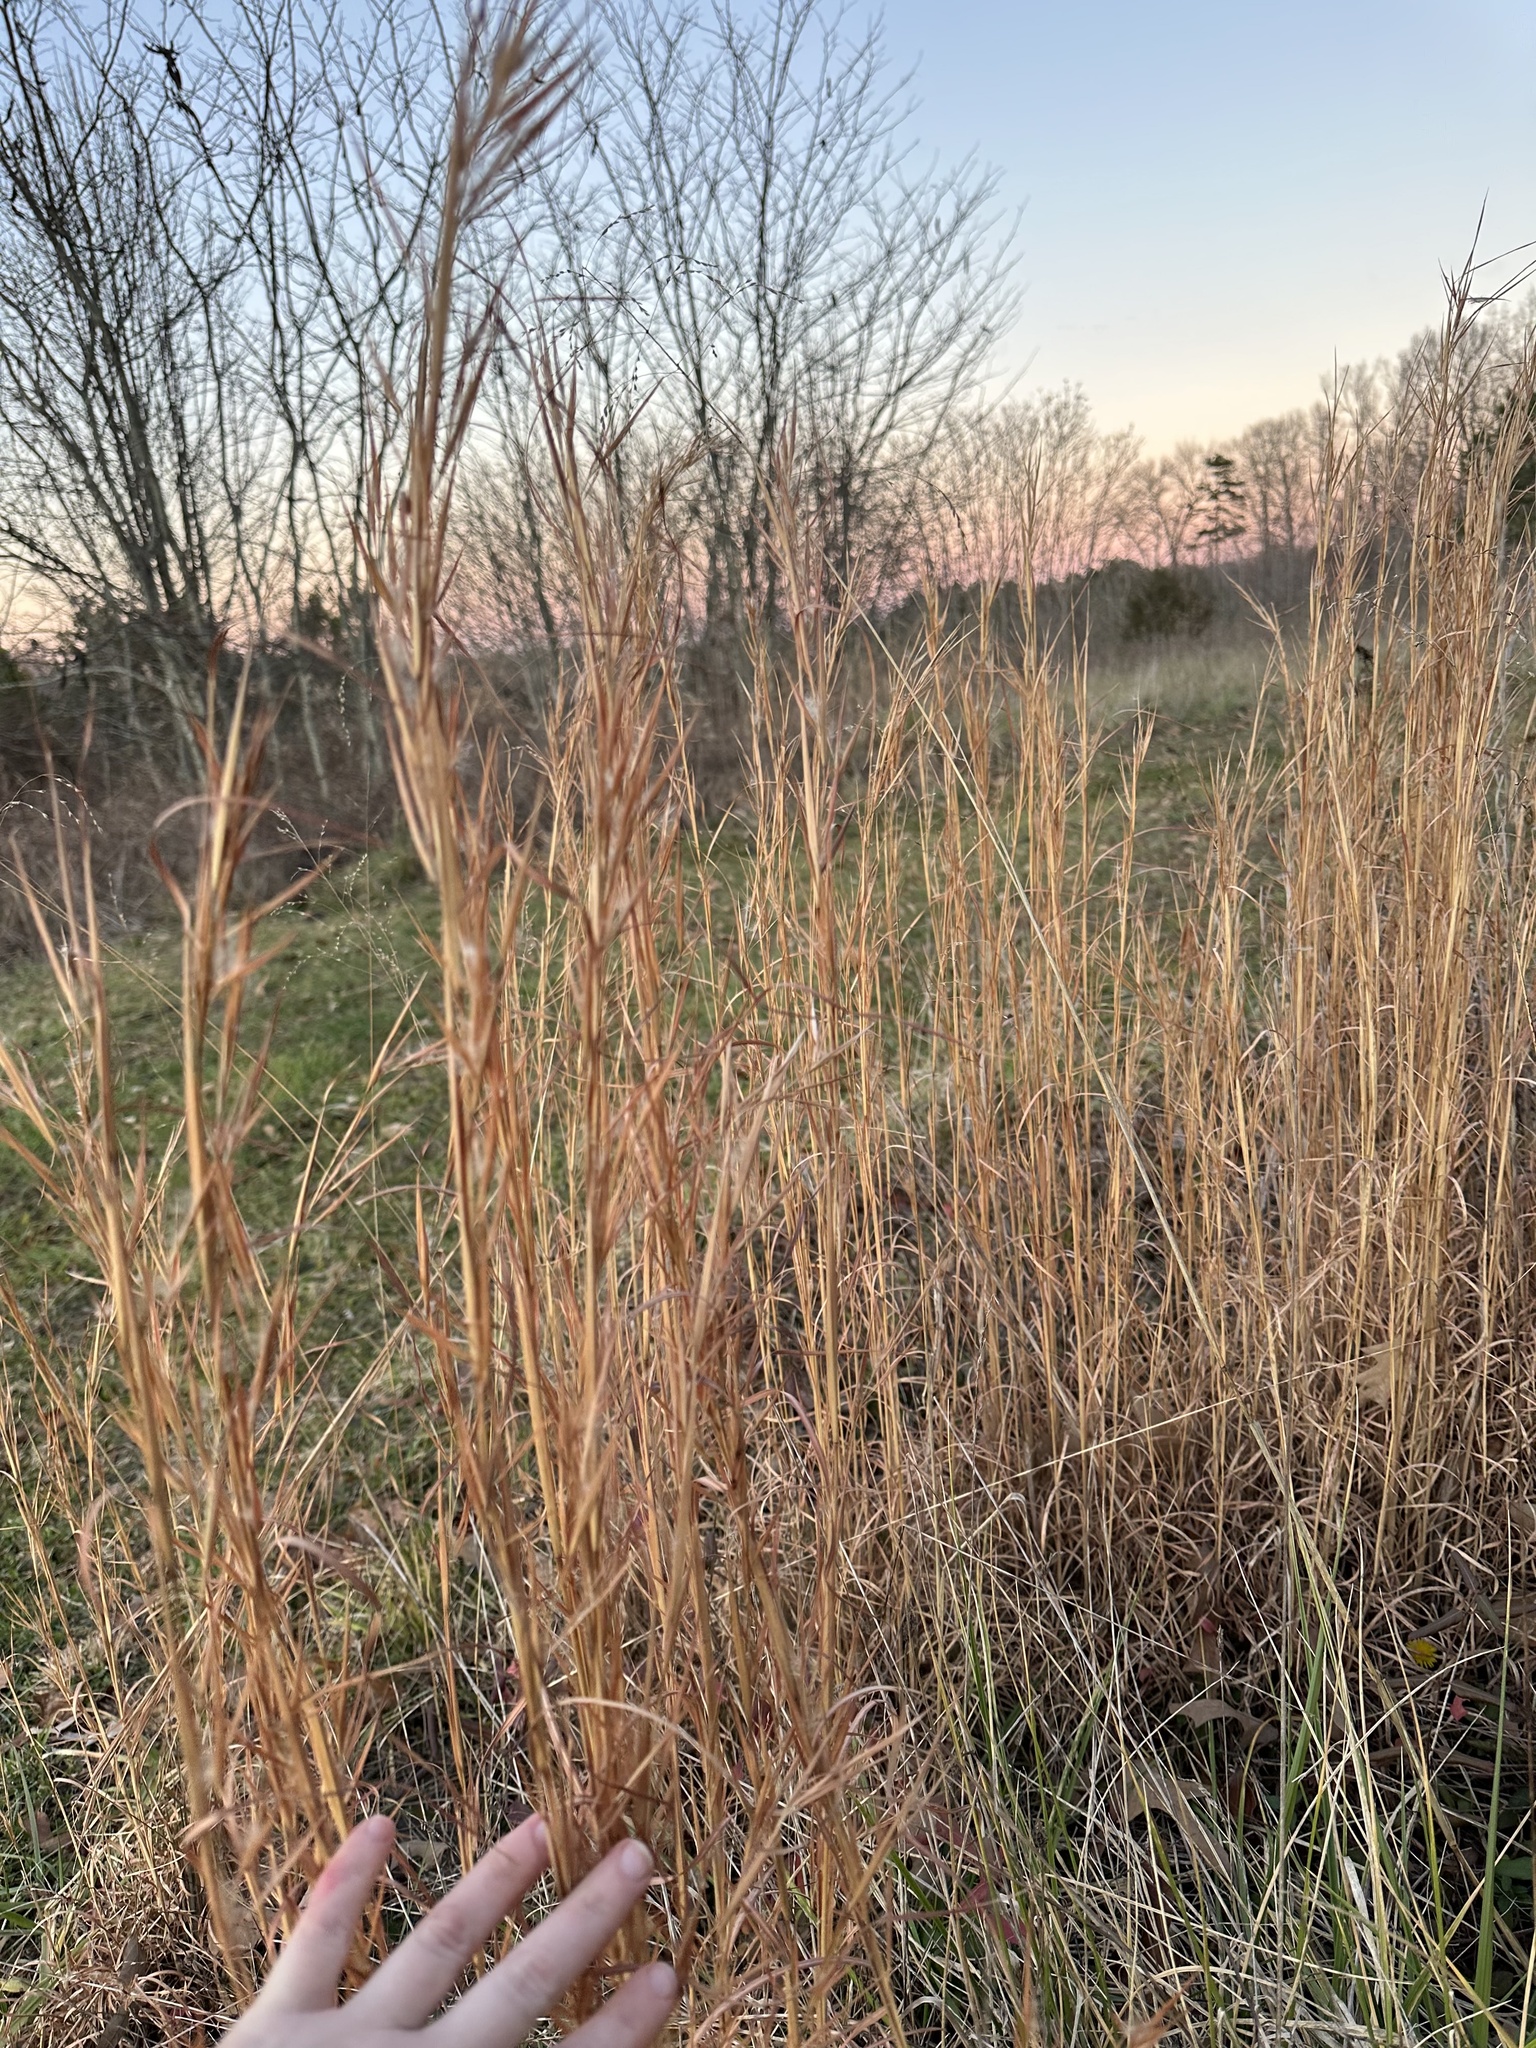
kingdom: Plantae
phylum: Tracheophyta
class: Liliopsida
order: Poales
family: Poaceae
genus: Andropogon
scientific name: Andropogon virginicus
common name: Broomsedge bluestem
